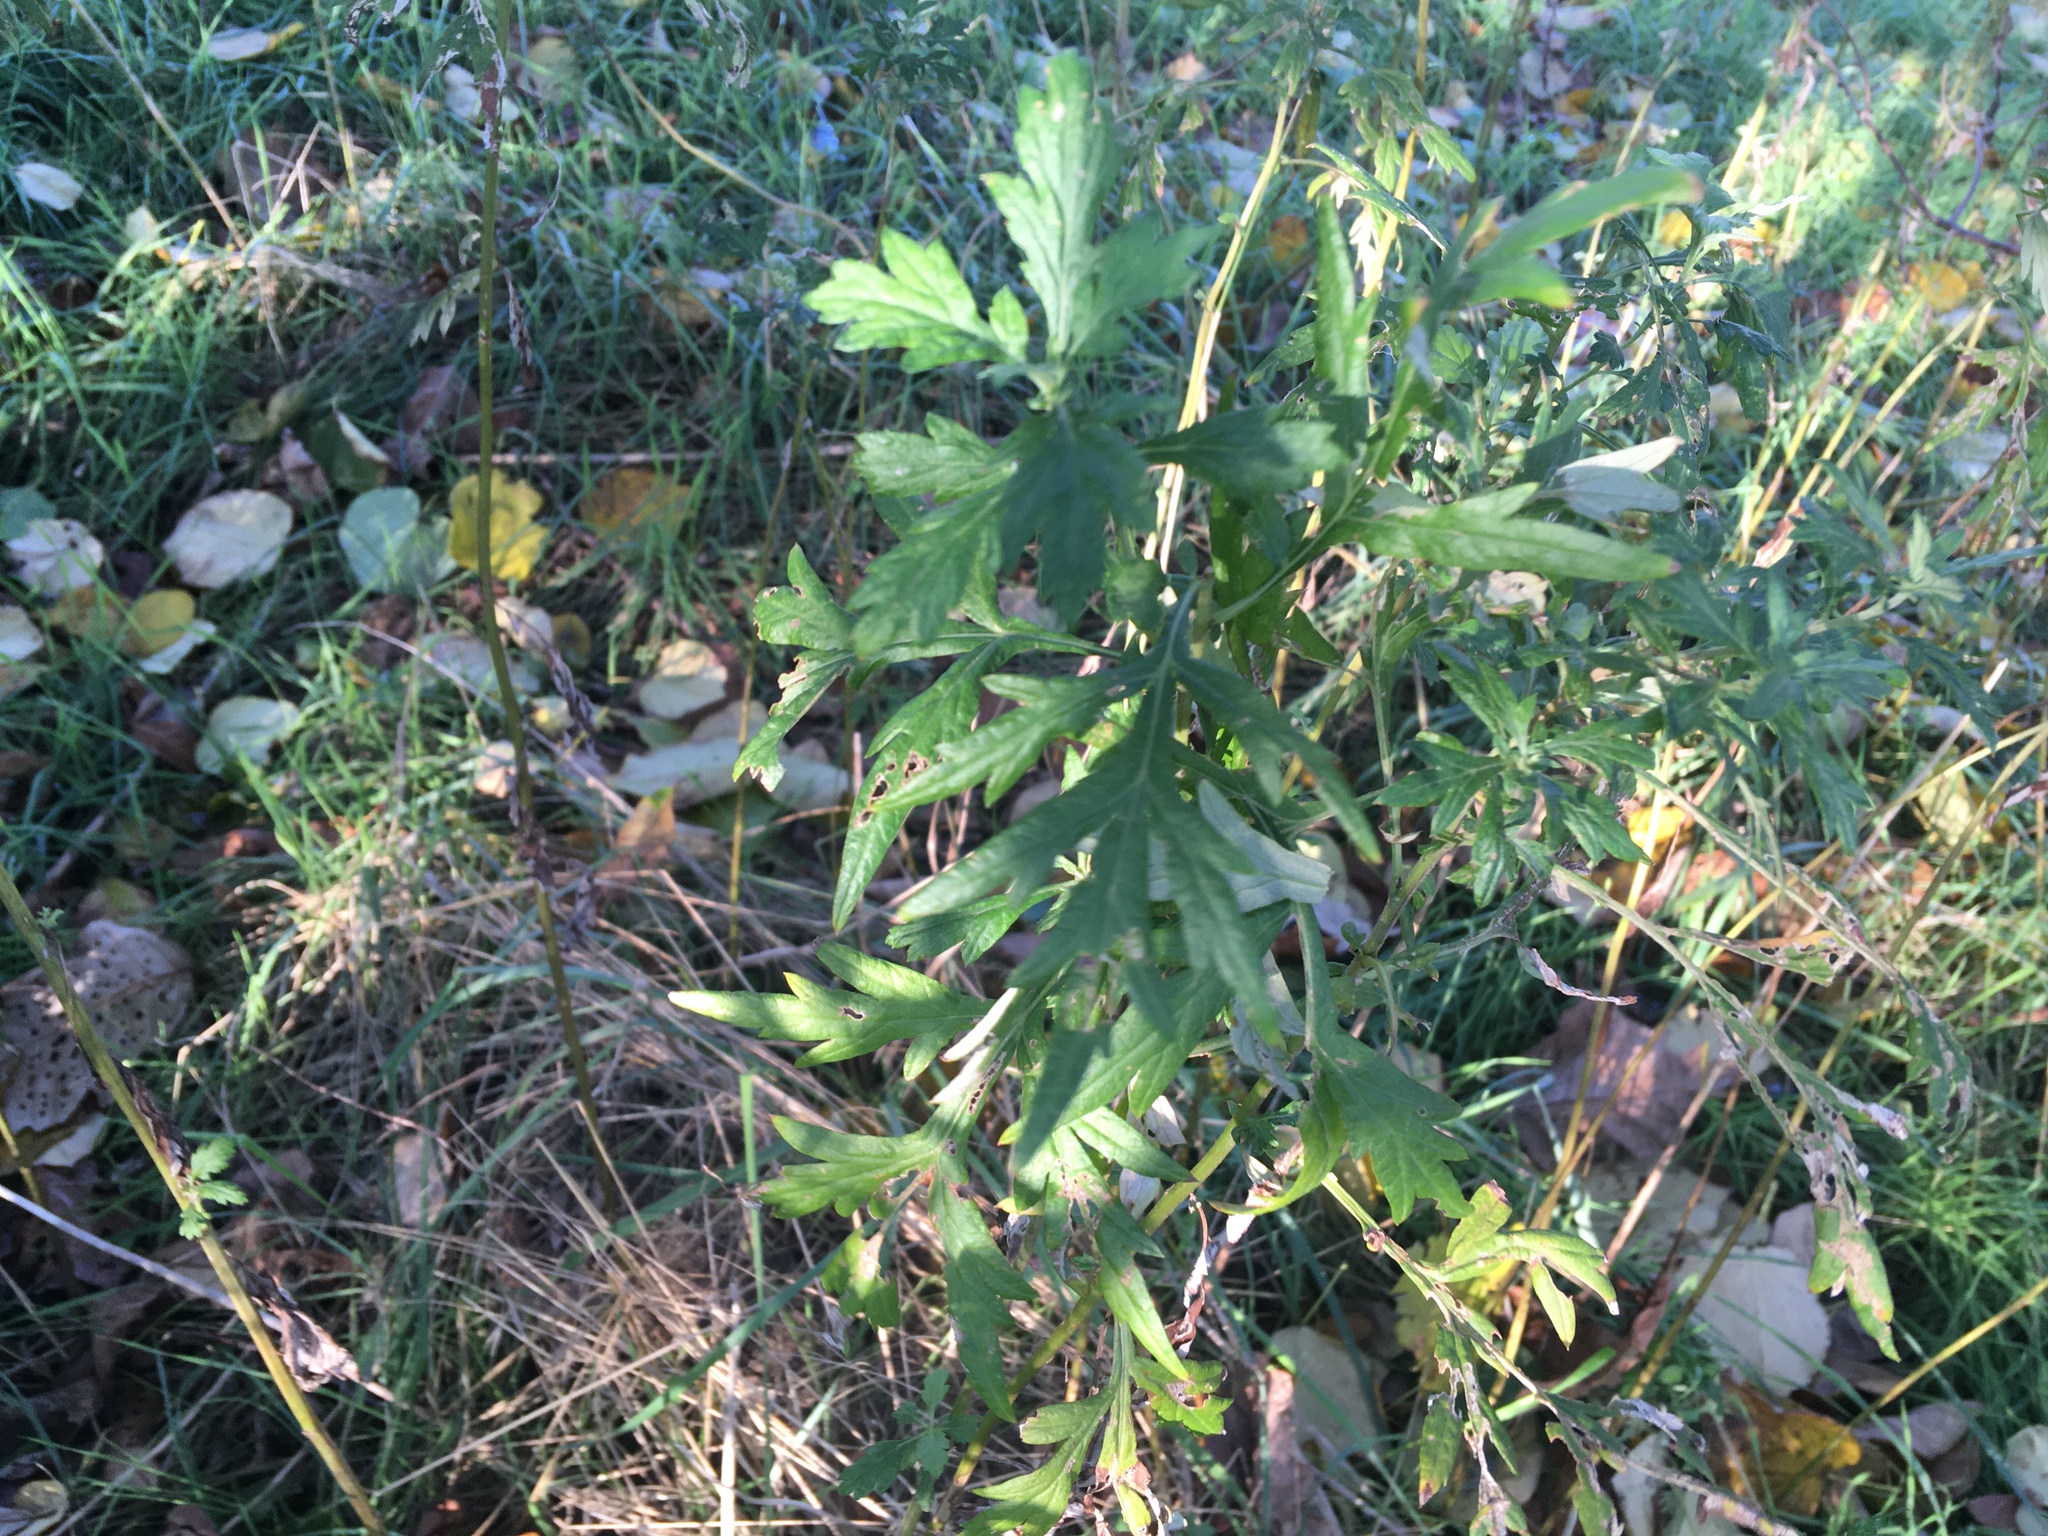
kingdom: Plantae
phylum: Tracheophyta
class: Magnoliopsida
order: Asterales
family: Asteraceae
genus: Artemisia
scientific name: Artemisia vulgaris
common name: Mugwort
